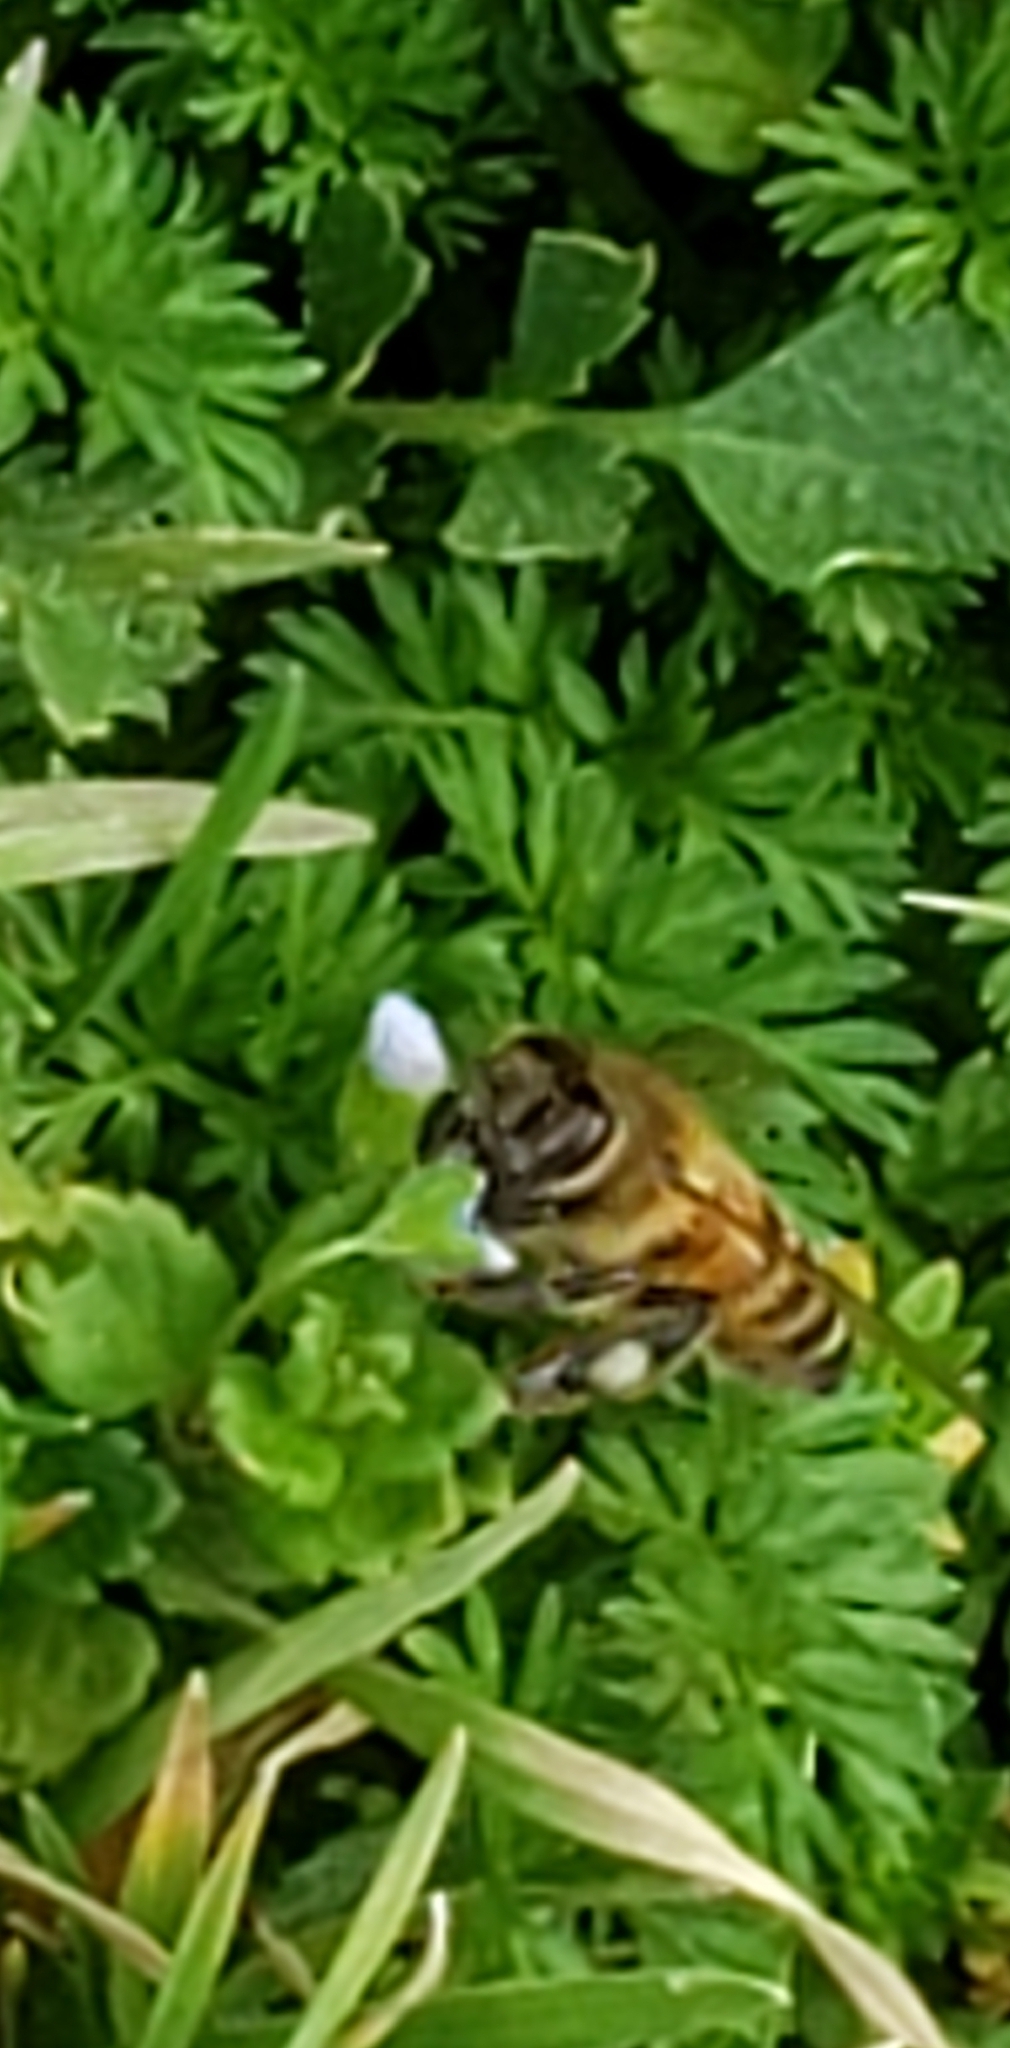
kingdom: Animalia
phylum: Arthropoda
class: Insecta
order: Hymenoptera
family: Apidae
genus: Apis
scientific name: Apis mellifera
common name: Honey bee
